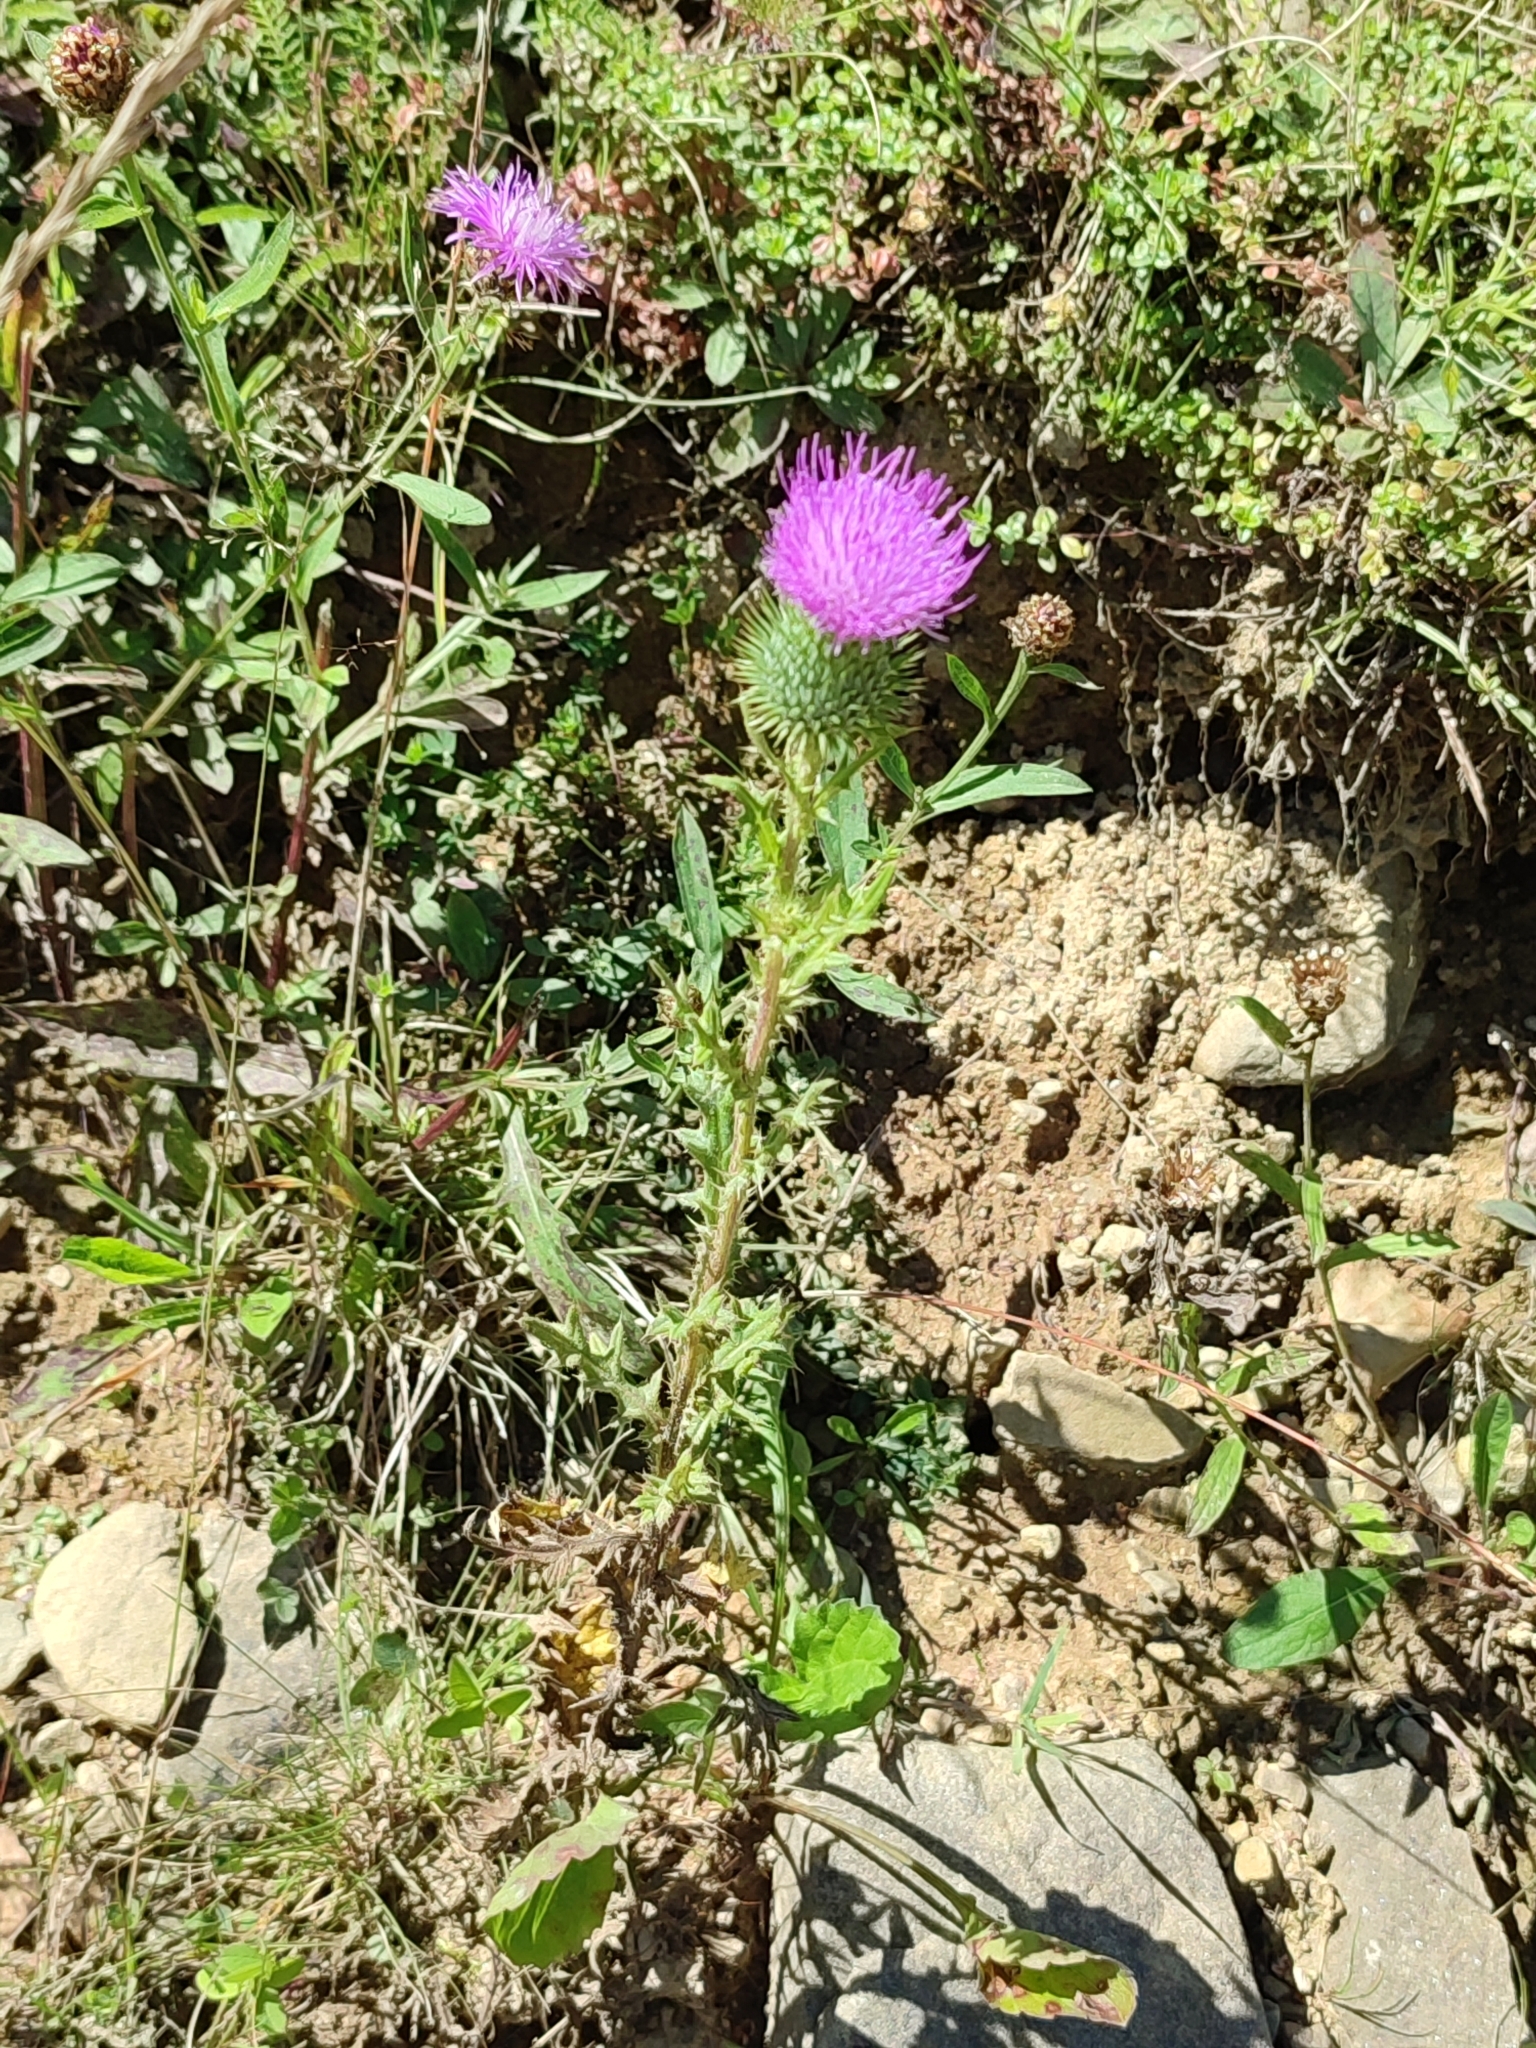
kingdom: Plantae
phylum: Tracheophyta
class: Magnoliopsida
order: Asterales
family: Asteraceae
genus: Cirsium
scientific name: Cirsium vulgare
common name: Bull thistle
